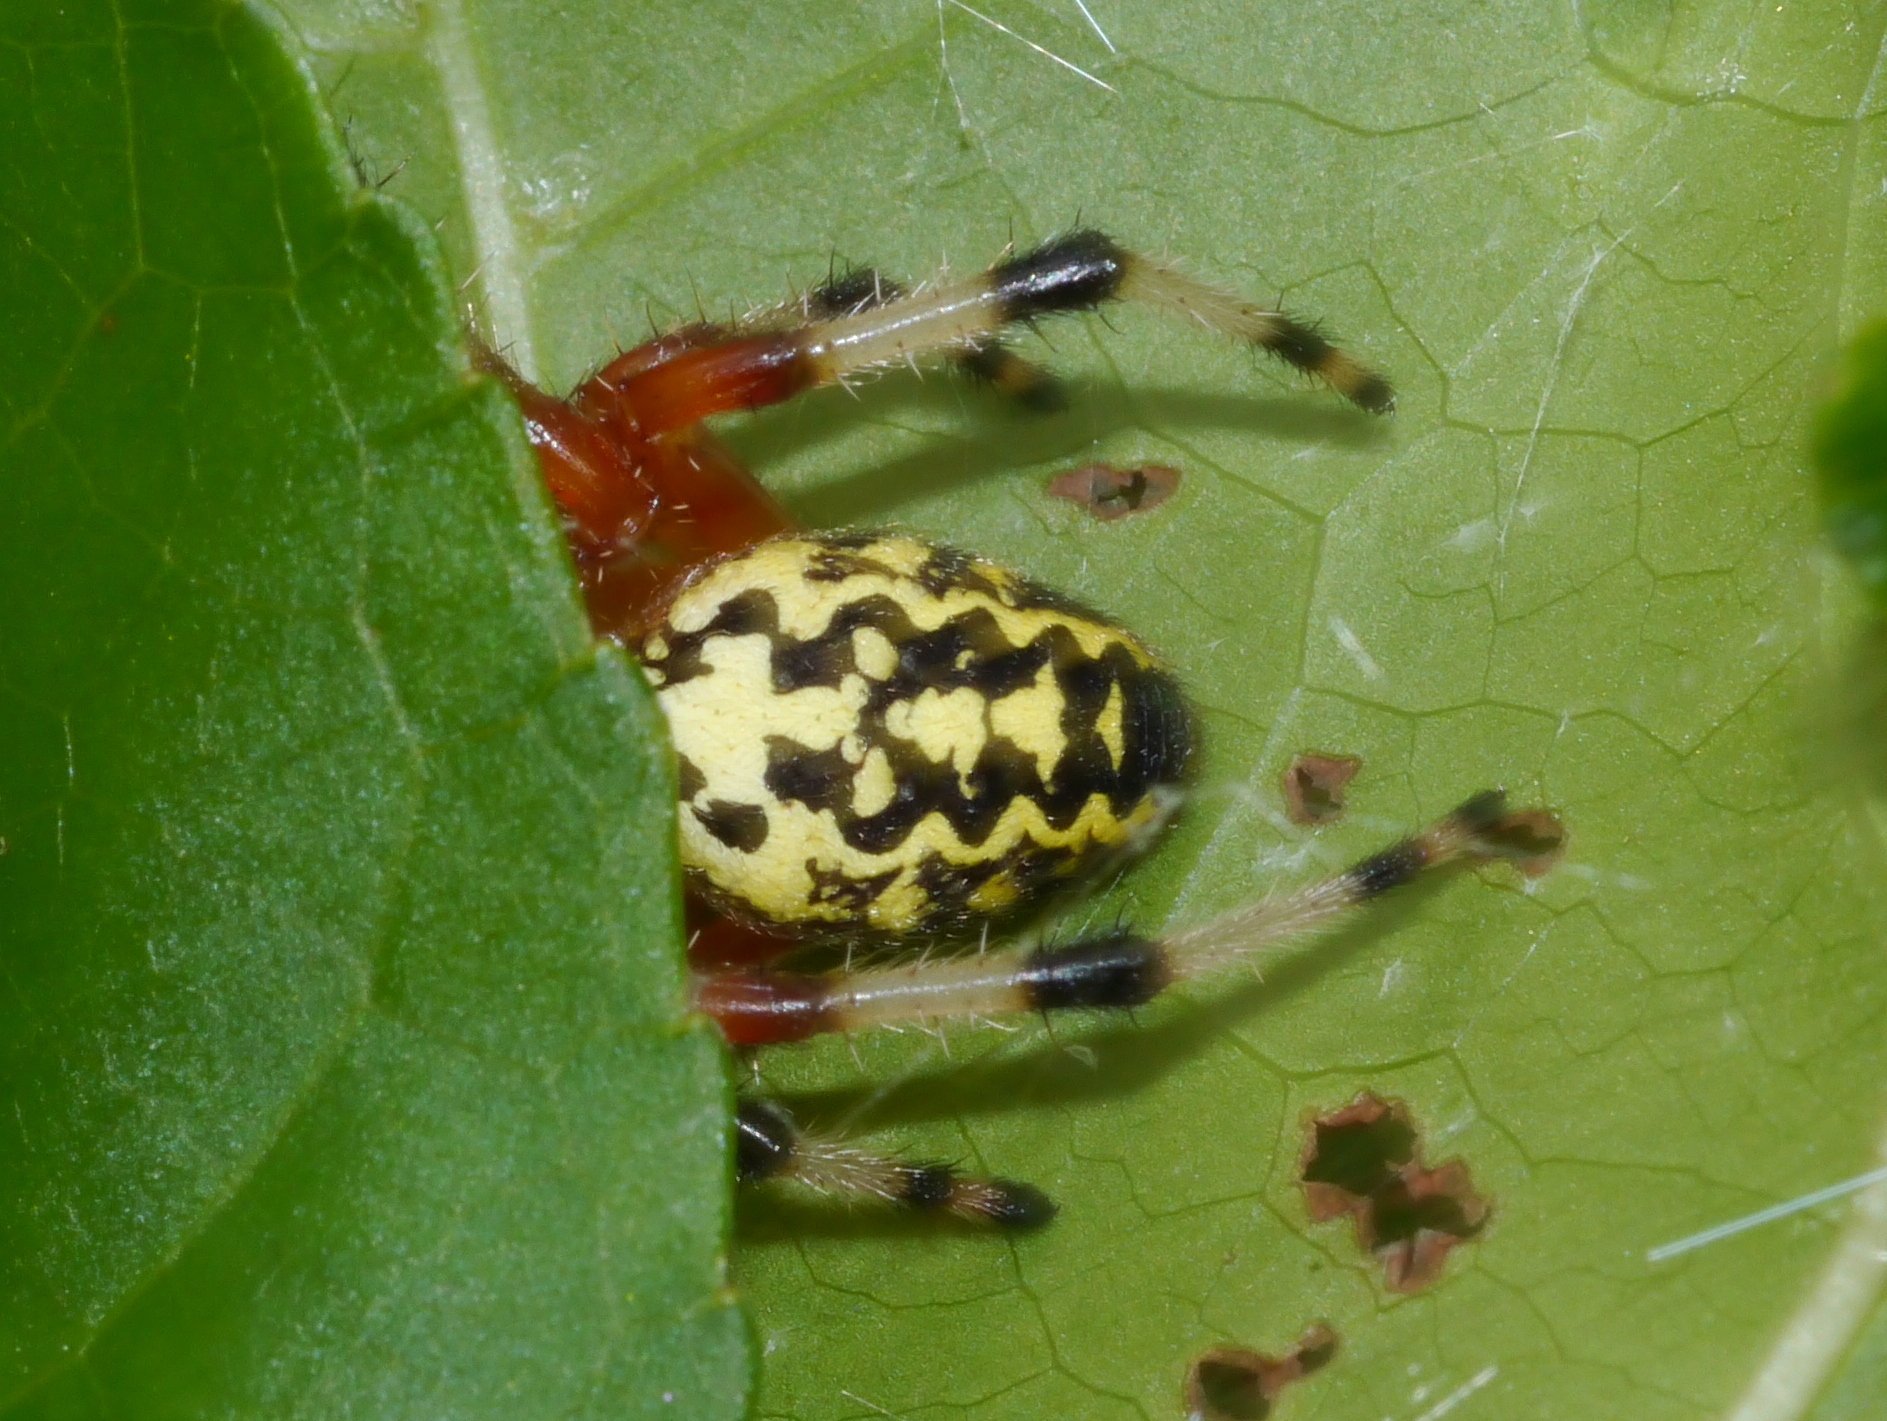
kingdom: Animalia
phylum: Arthropoda
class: Arachnida
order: Araneae
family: Araneidae
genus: Araneus
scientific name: Araneus marmoreus
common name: Marbled orbweaver
